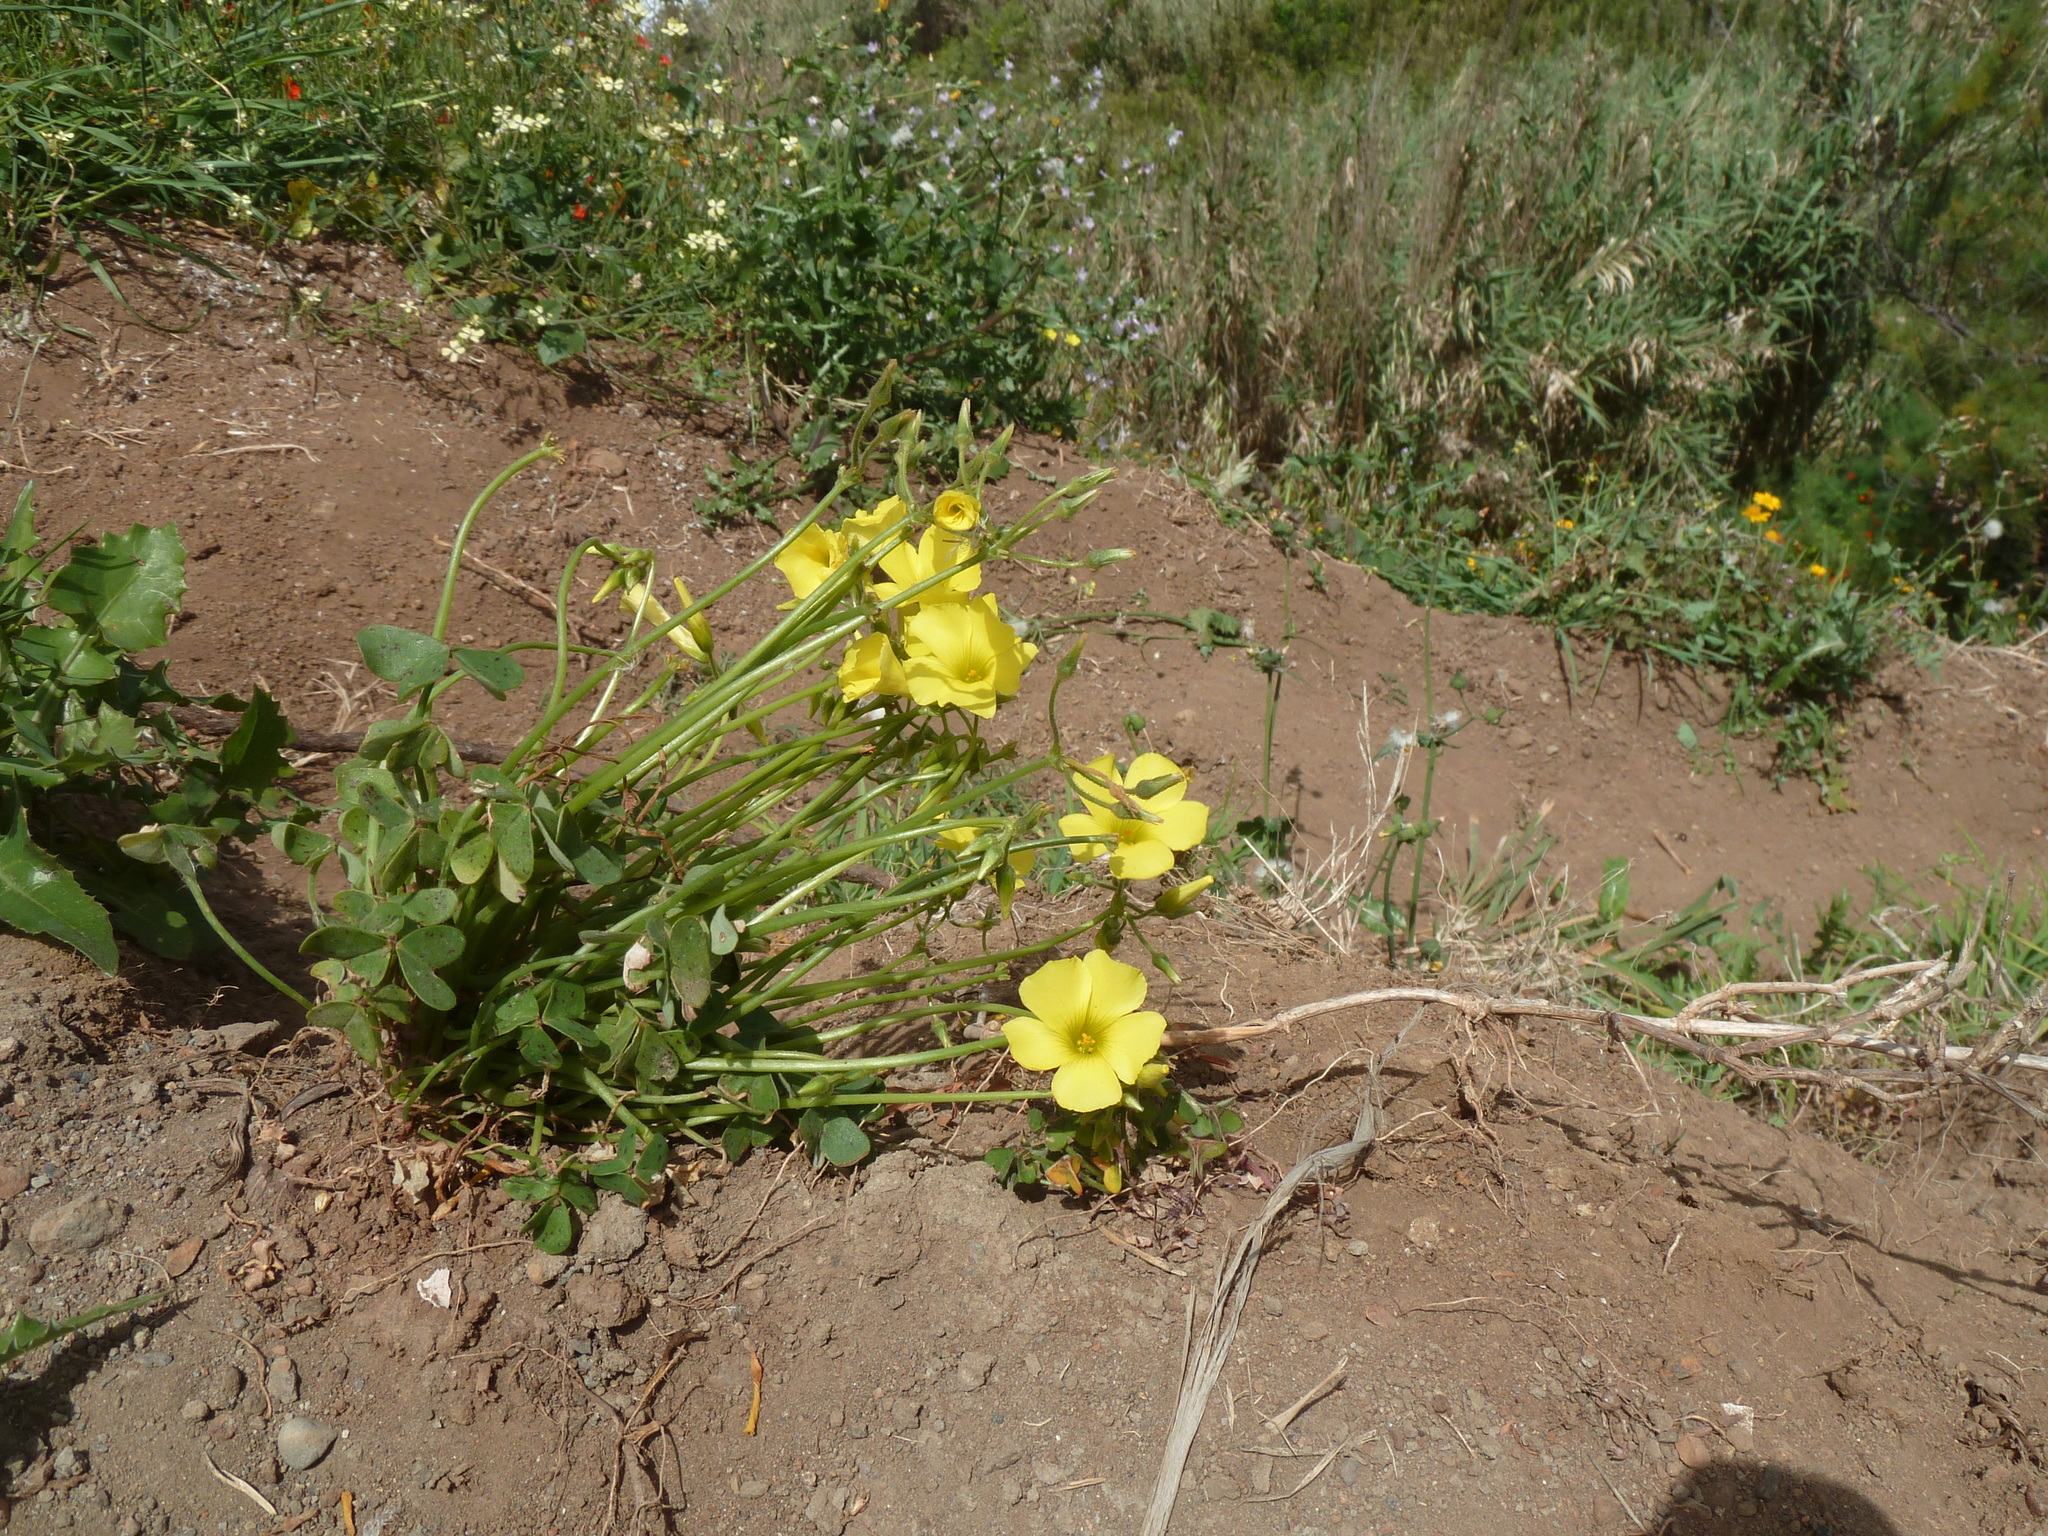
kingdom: Plantae
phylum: Tracheophyta
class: Magnoliopsida
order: Oxalidales
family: Oxalidaceae
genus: Oxalis
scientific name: Oxalis pes-caprae
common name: Bermuda-buttercup
